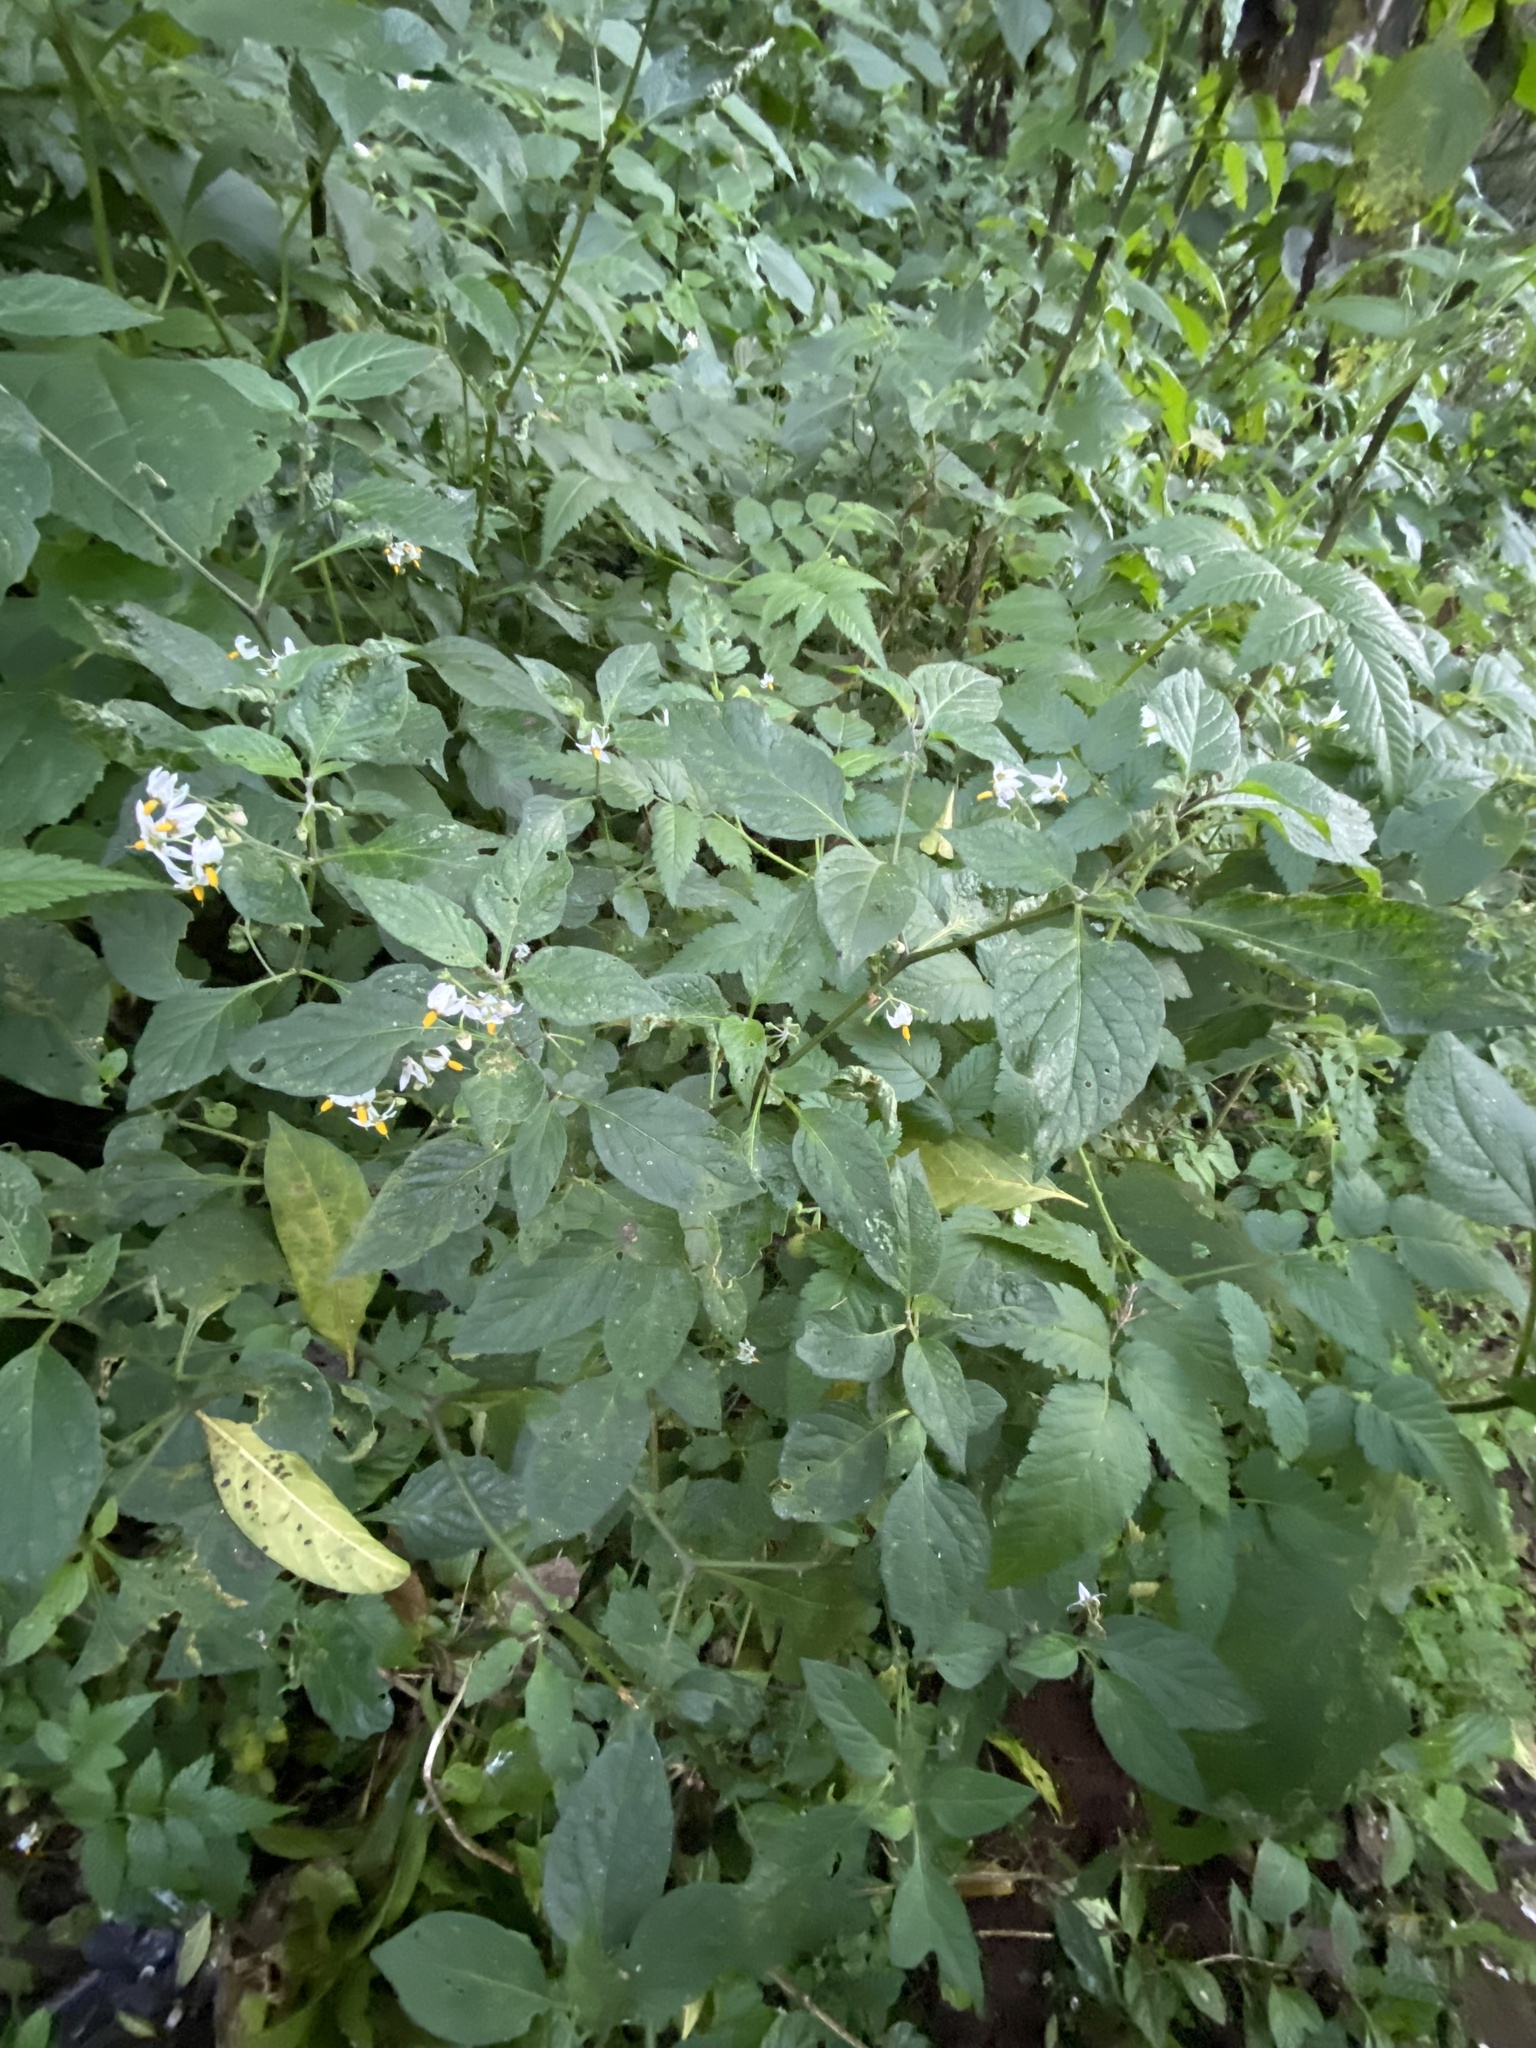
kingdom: Plantae
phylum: Tracheophyta
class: Magnoliopsida
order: Solanales
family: Solanaceae
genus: Solanum
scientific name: Solanum nigrescens
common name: Divine nightshade
